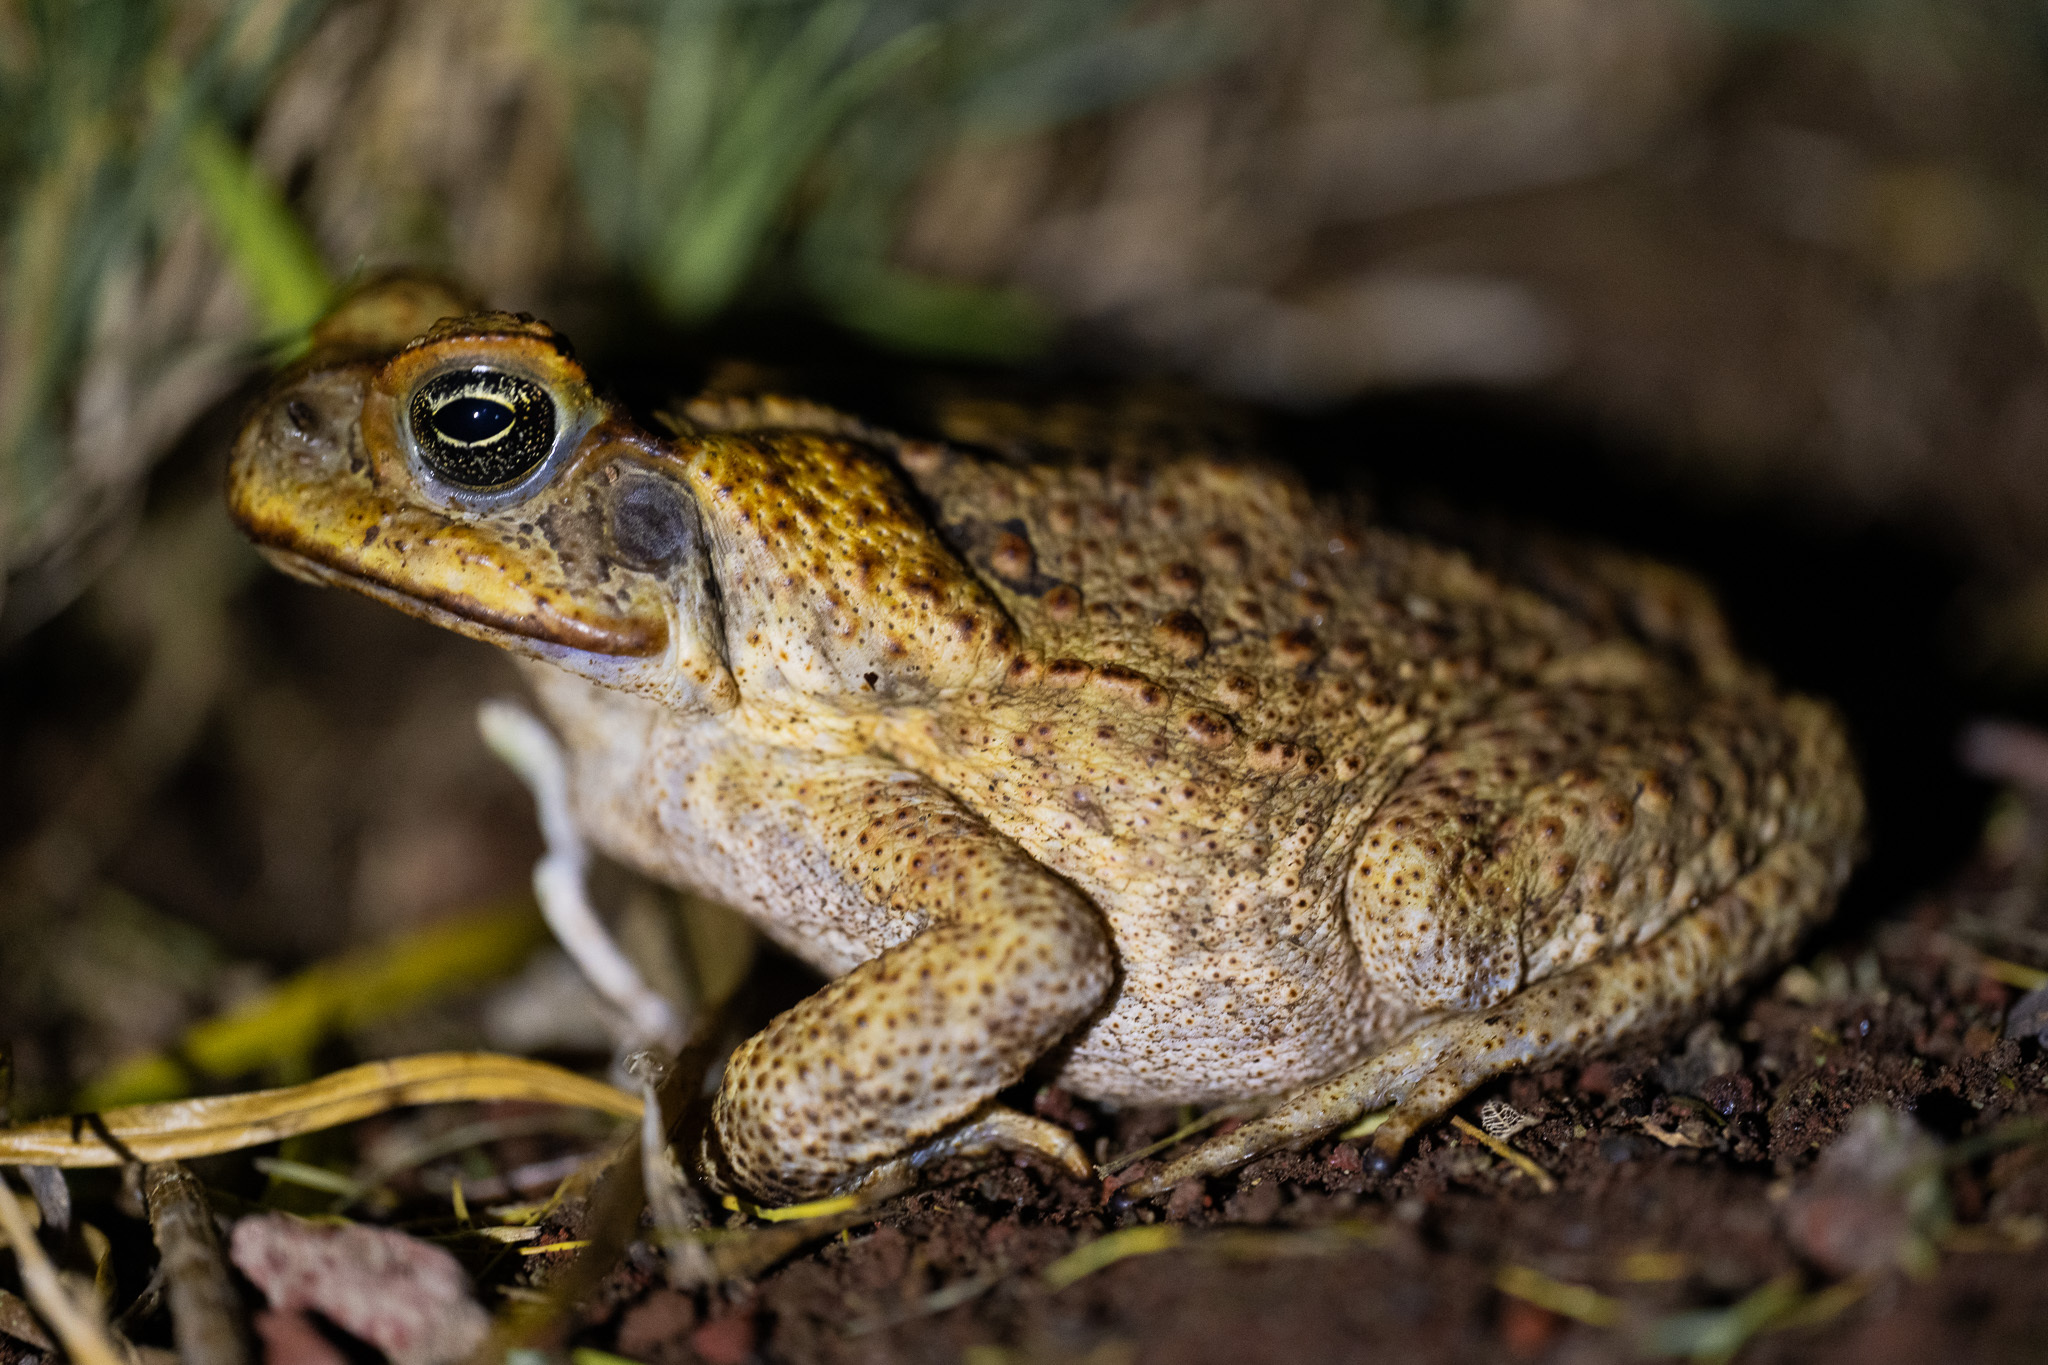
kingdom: Animalia
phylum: Chordata
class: Amphibia
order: Anura
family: Bufonidae
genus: Rhinella
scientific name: Rhinella marina
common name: Cane toad
